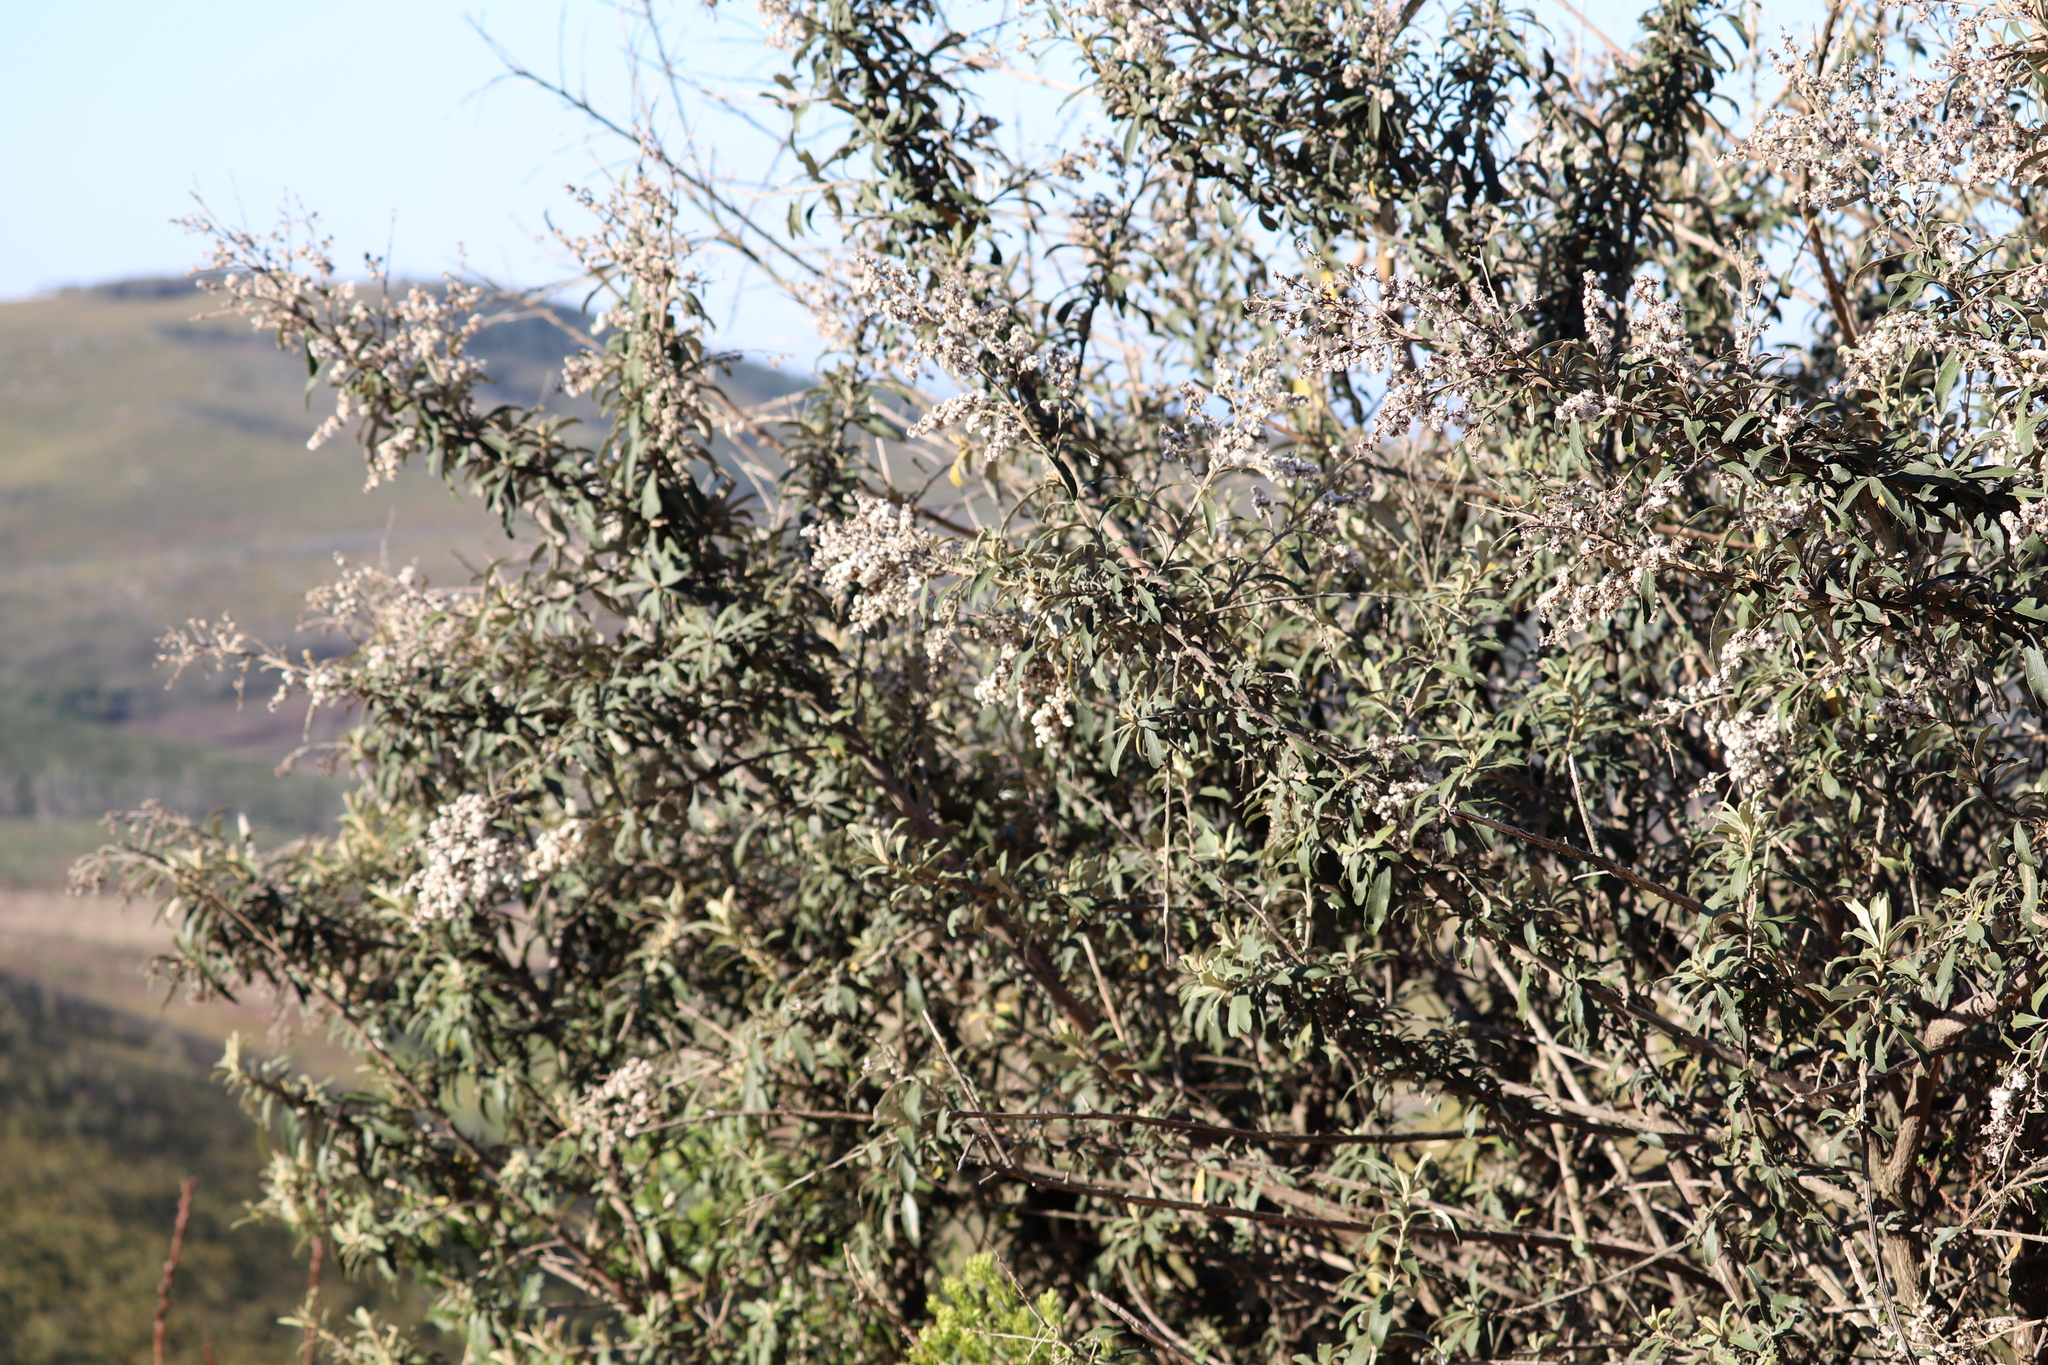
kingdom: Plantae
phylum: Tracheophyta
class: Magnoliopsida
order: Asterales
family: Asteraceae
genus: Tarchonanthus
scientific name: Tarchonanthus littoralis
